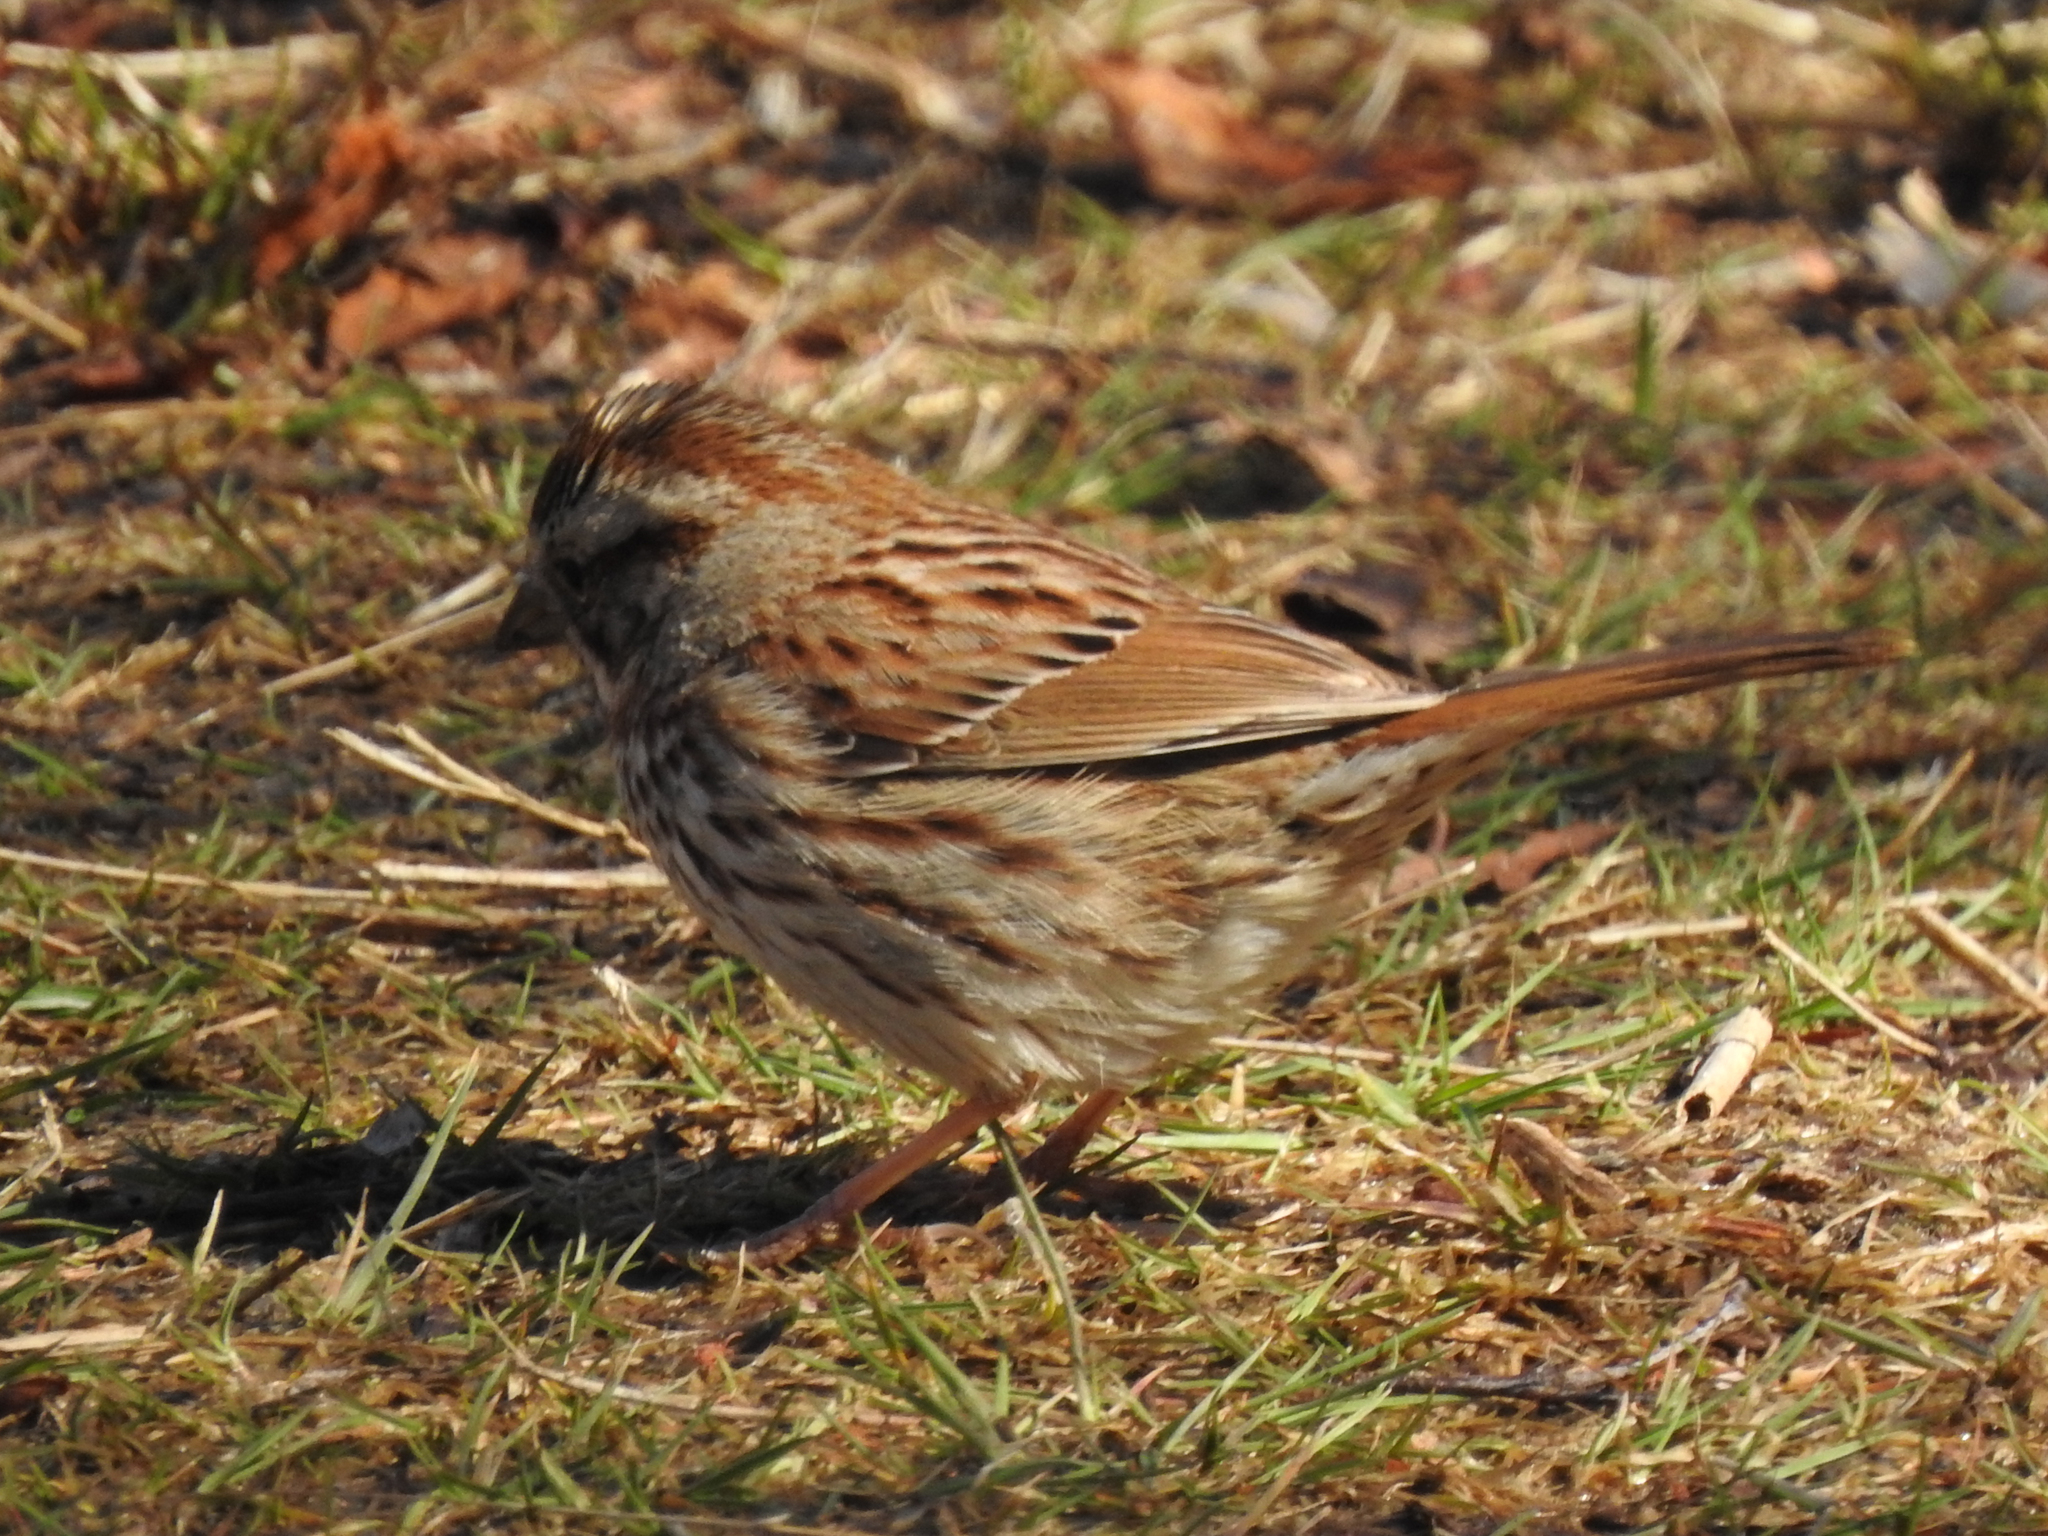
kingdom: Animalia
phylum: Chordata
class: Aves
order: Passeriformes
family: Passerellidae
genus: Melospiza
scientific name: Melospiza melodia
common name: Song sparrow
